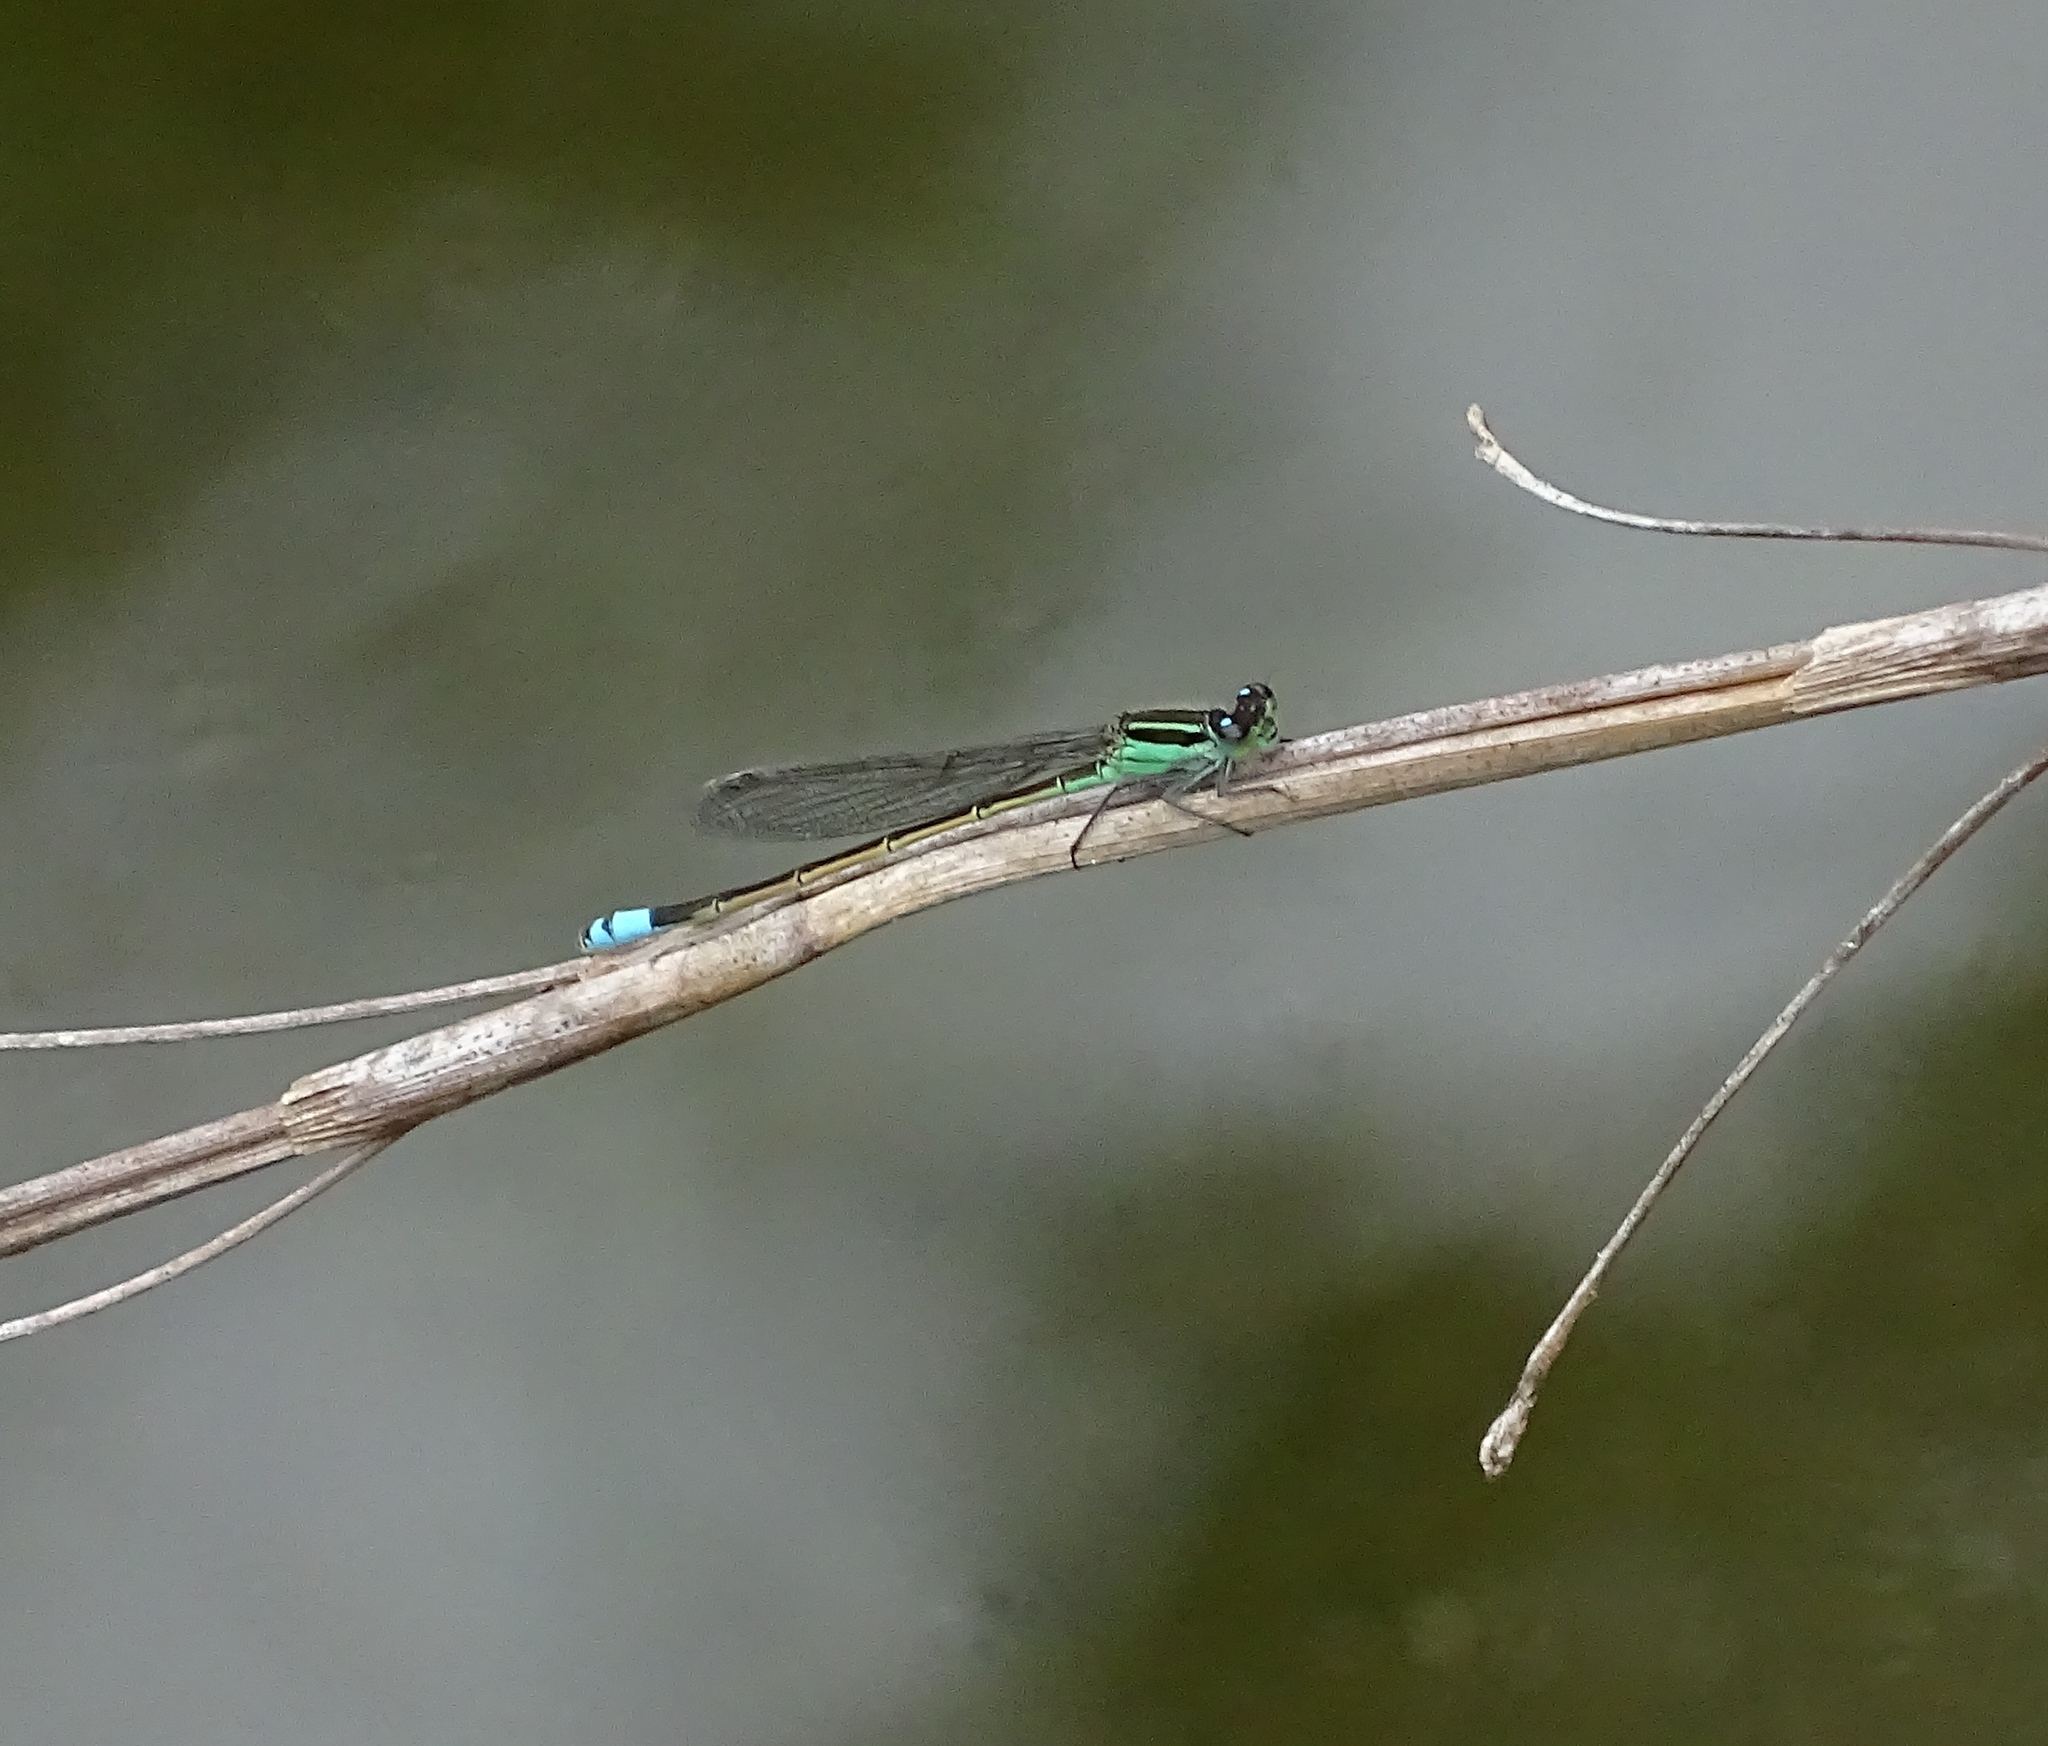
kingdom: Animalia
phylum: Arthropoda
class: Insecta
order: Odonata
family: Coenagrionidae
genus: Ischnura
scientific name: Ischnura ramburii
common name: Rambur's forktail
